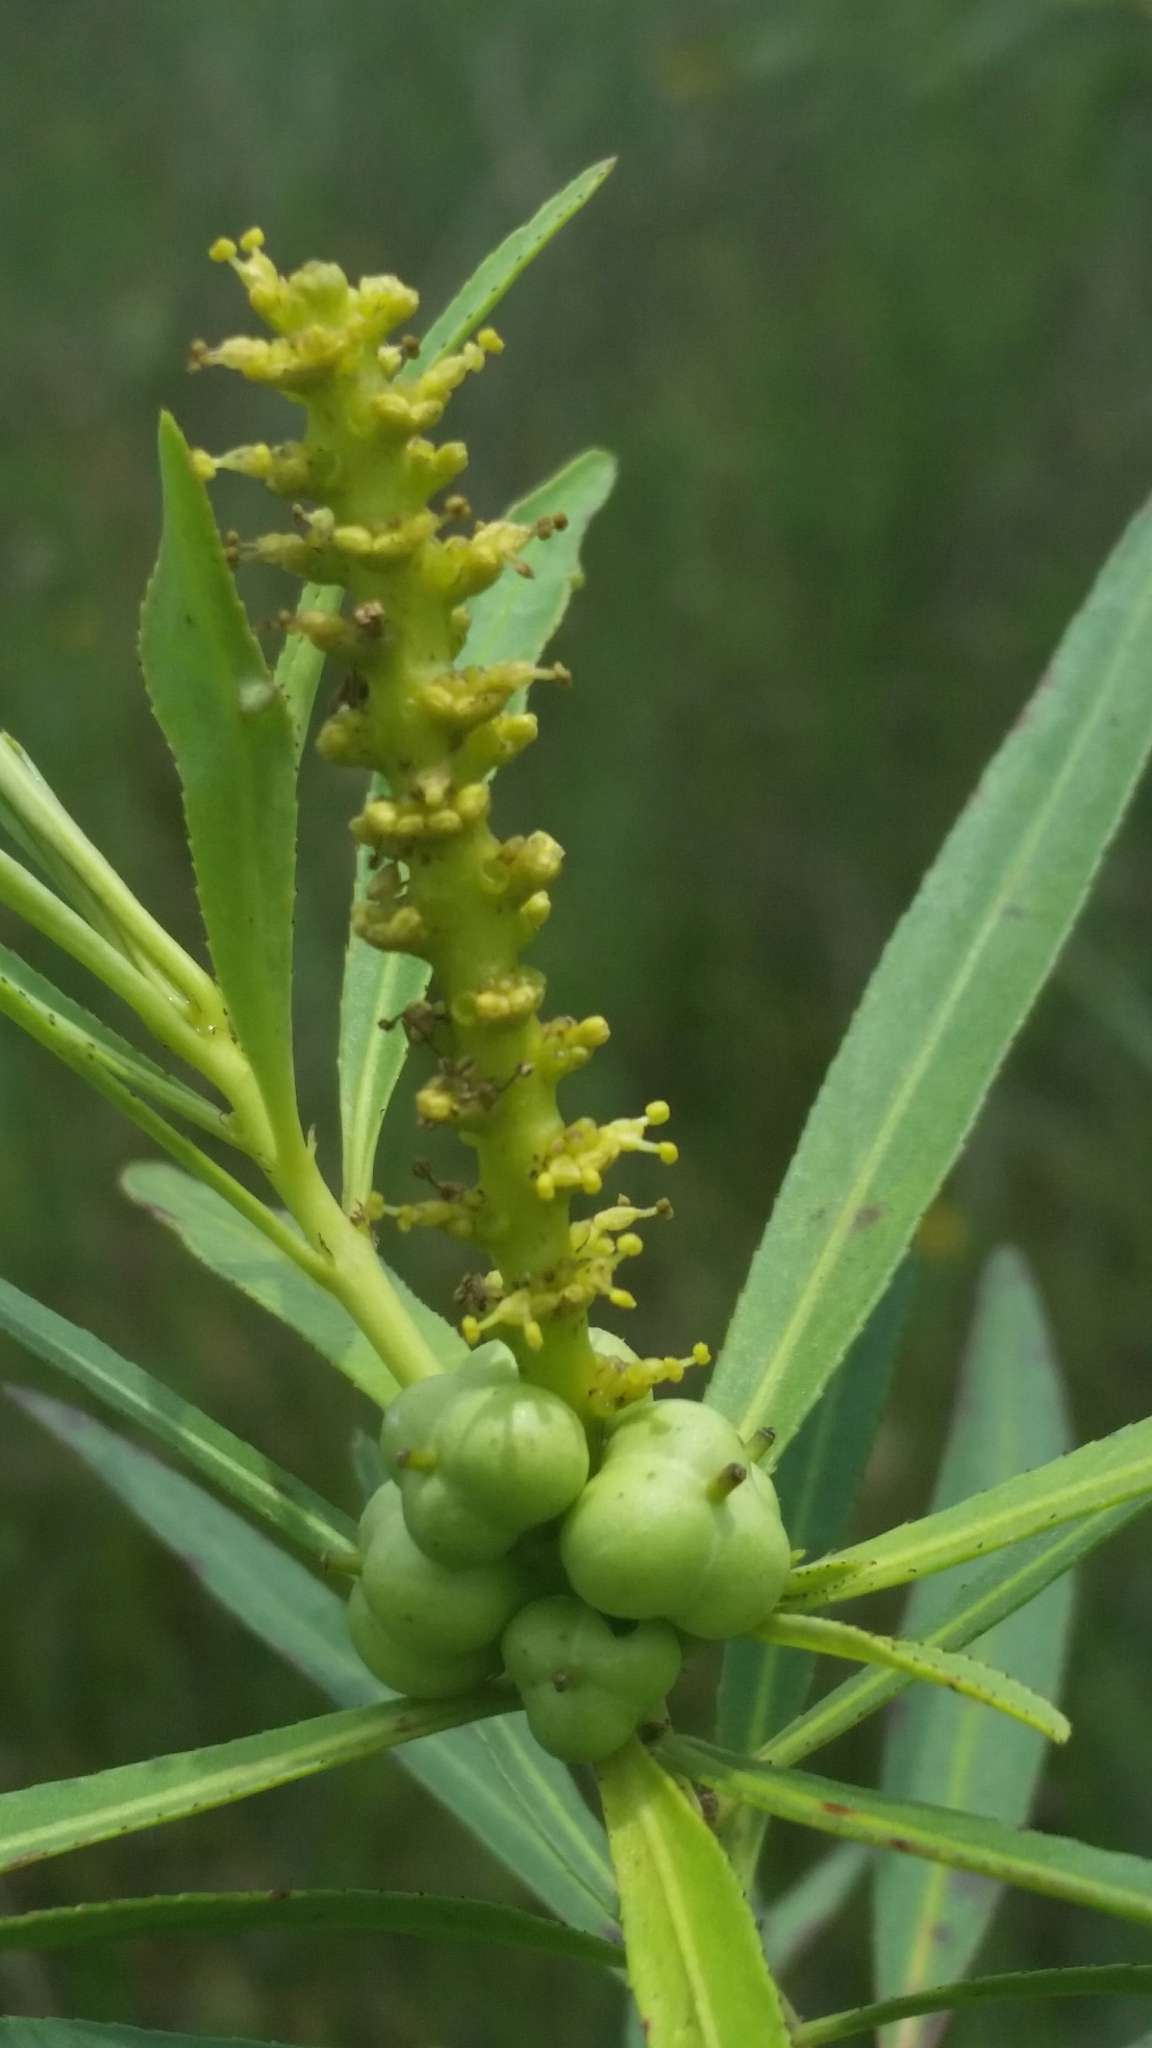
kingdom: Plantae
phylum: Tracheophyta
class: Magnoliopsida
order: Malpighiales
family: Euphorbiaceae
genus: Stillingia
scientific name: Stillingia aquatica
